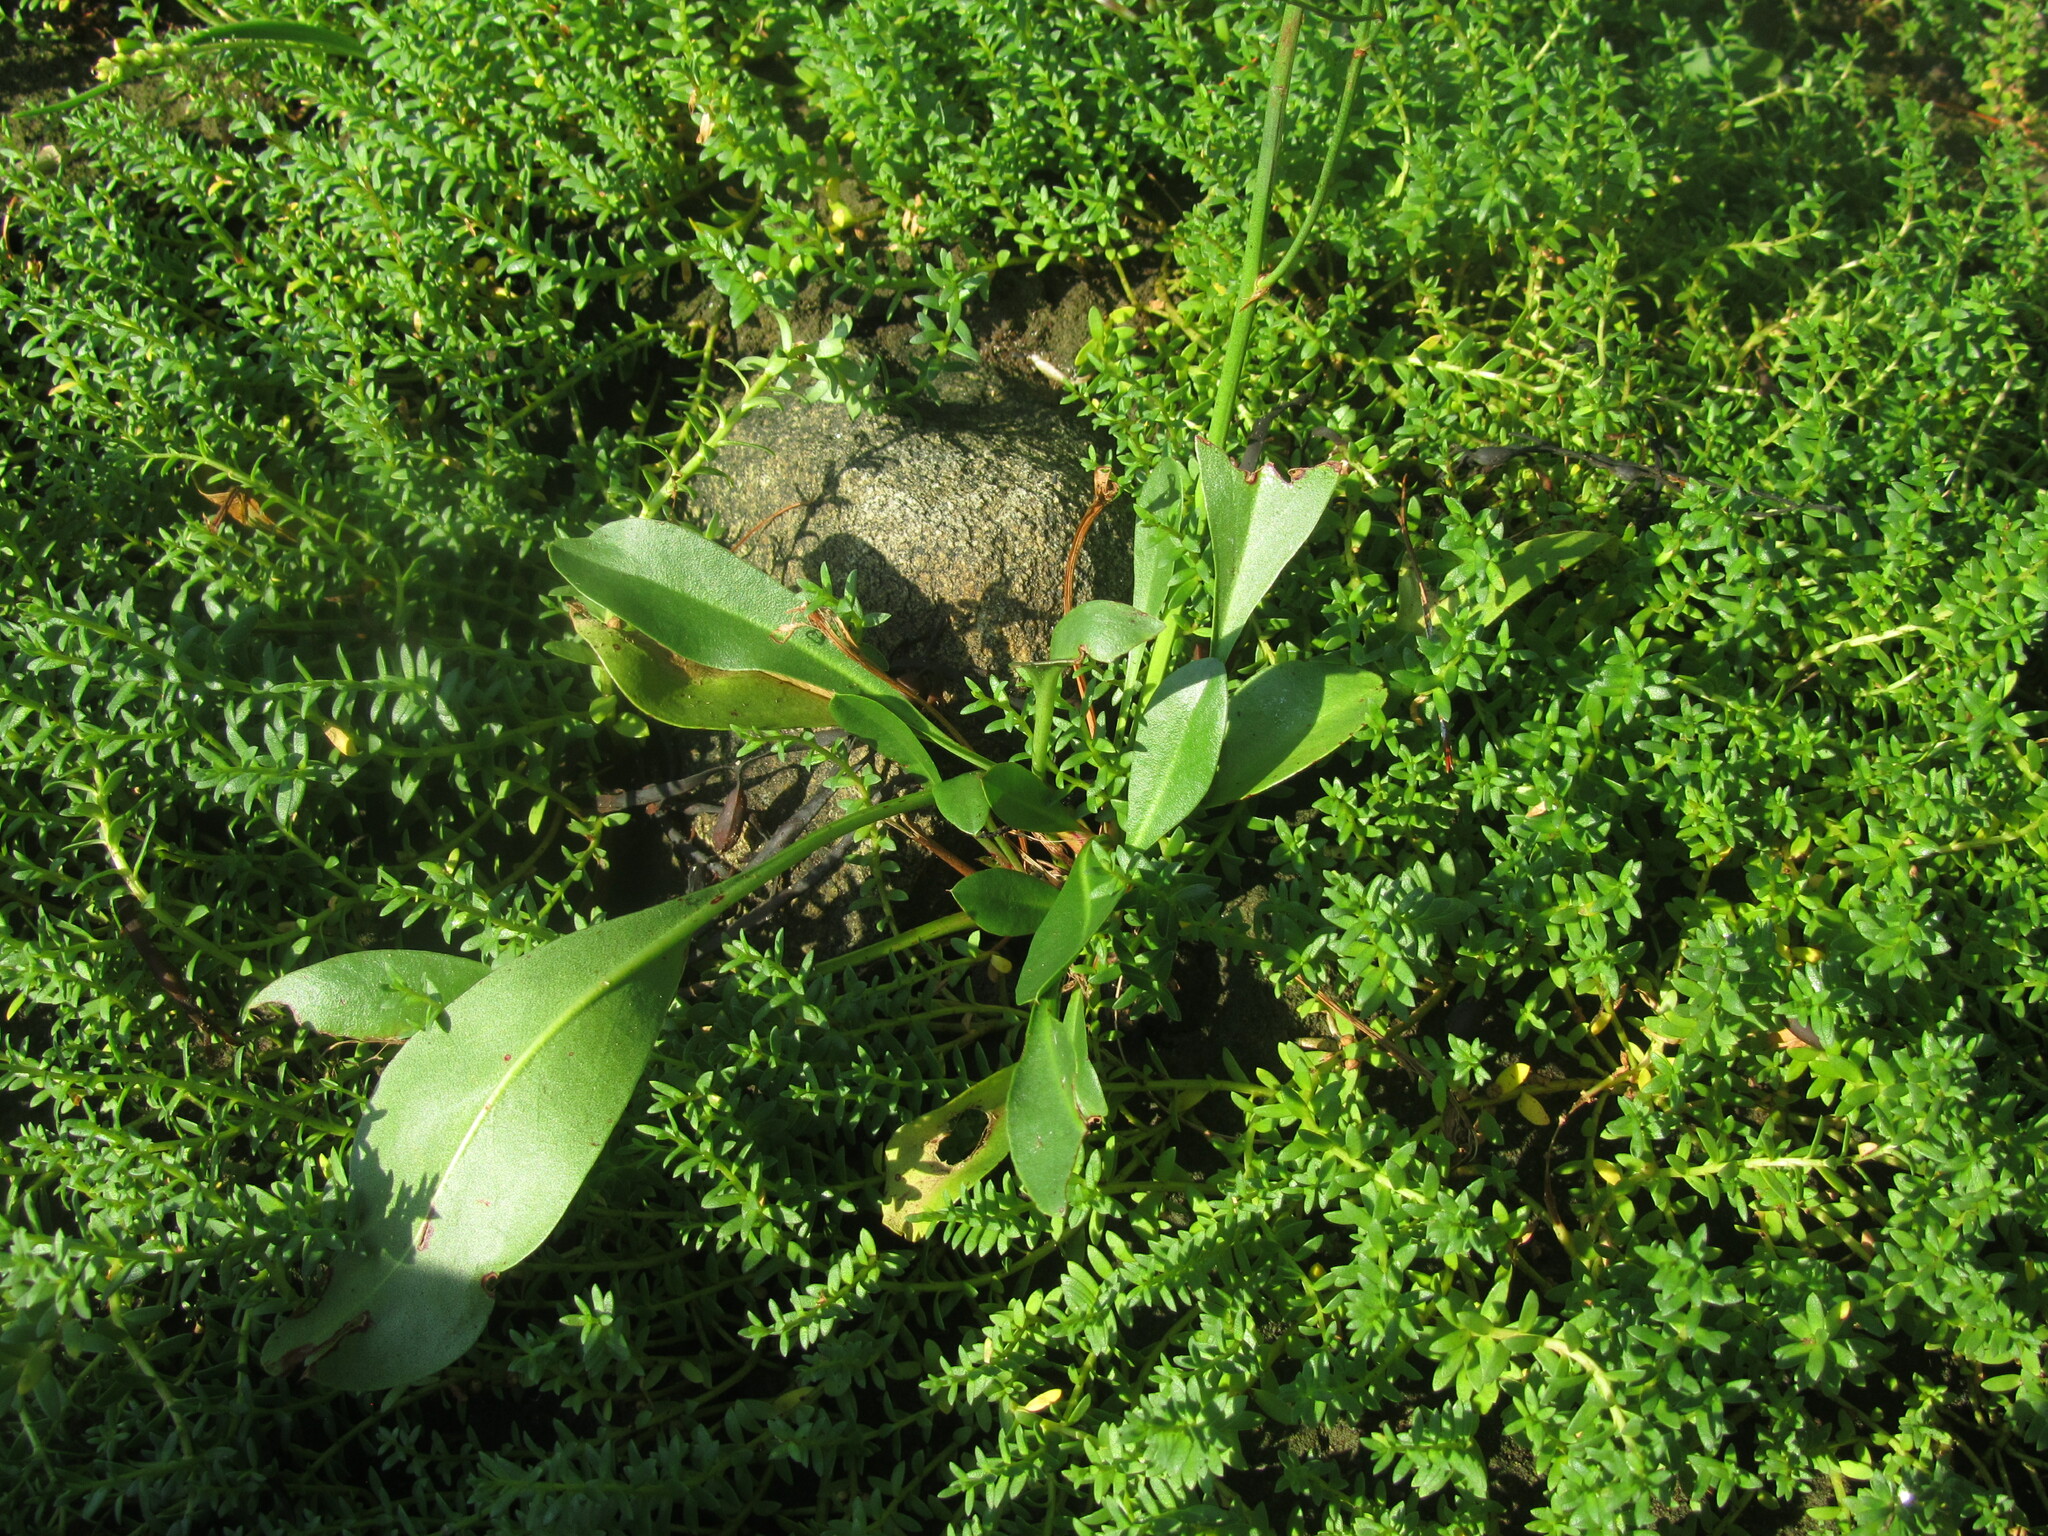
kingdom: Plantae
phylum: Tracheophyta
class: Magnoliopsida
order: Caryophyllales
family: Plumbaginaceae
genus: Limonium
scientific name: Limonium carolinianum
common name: Carolina sea lavender
